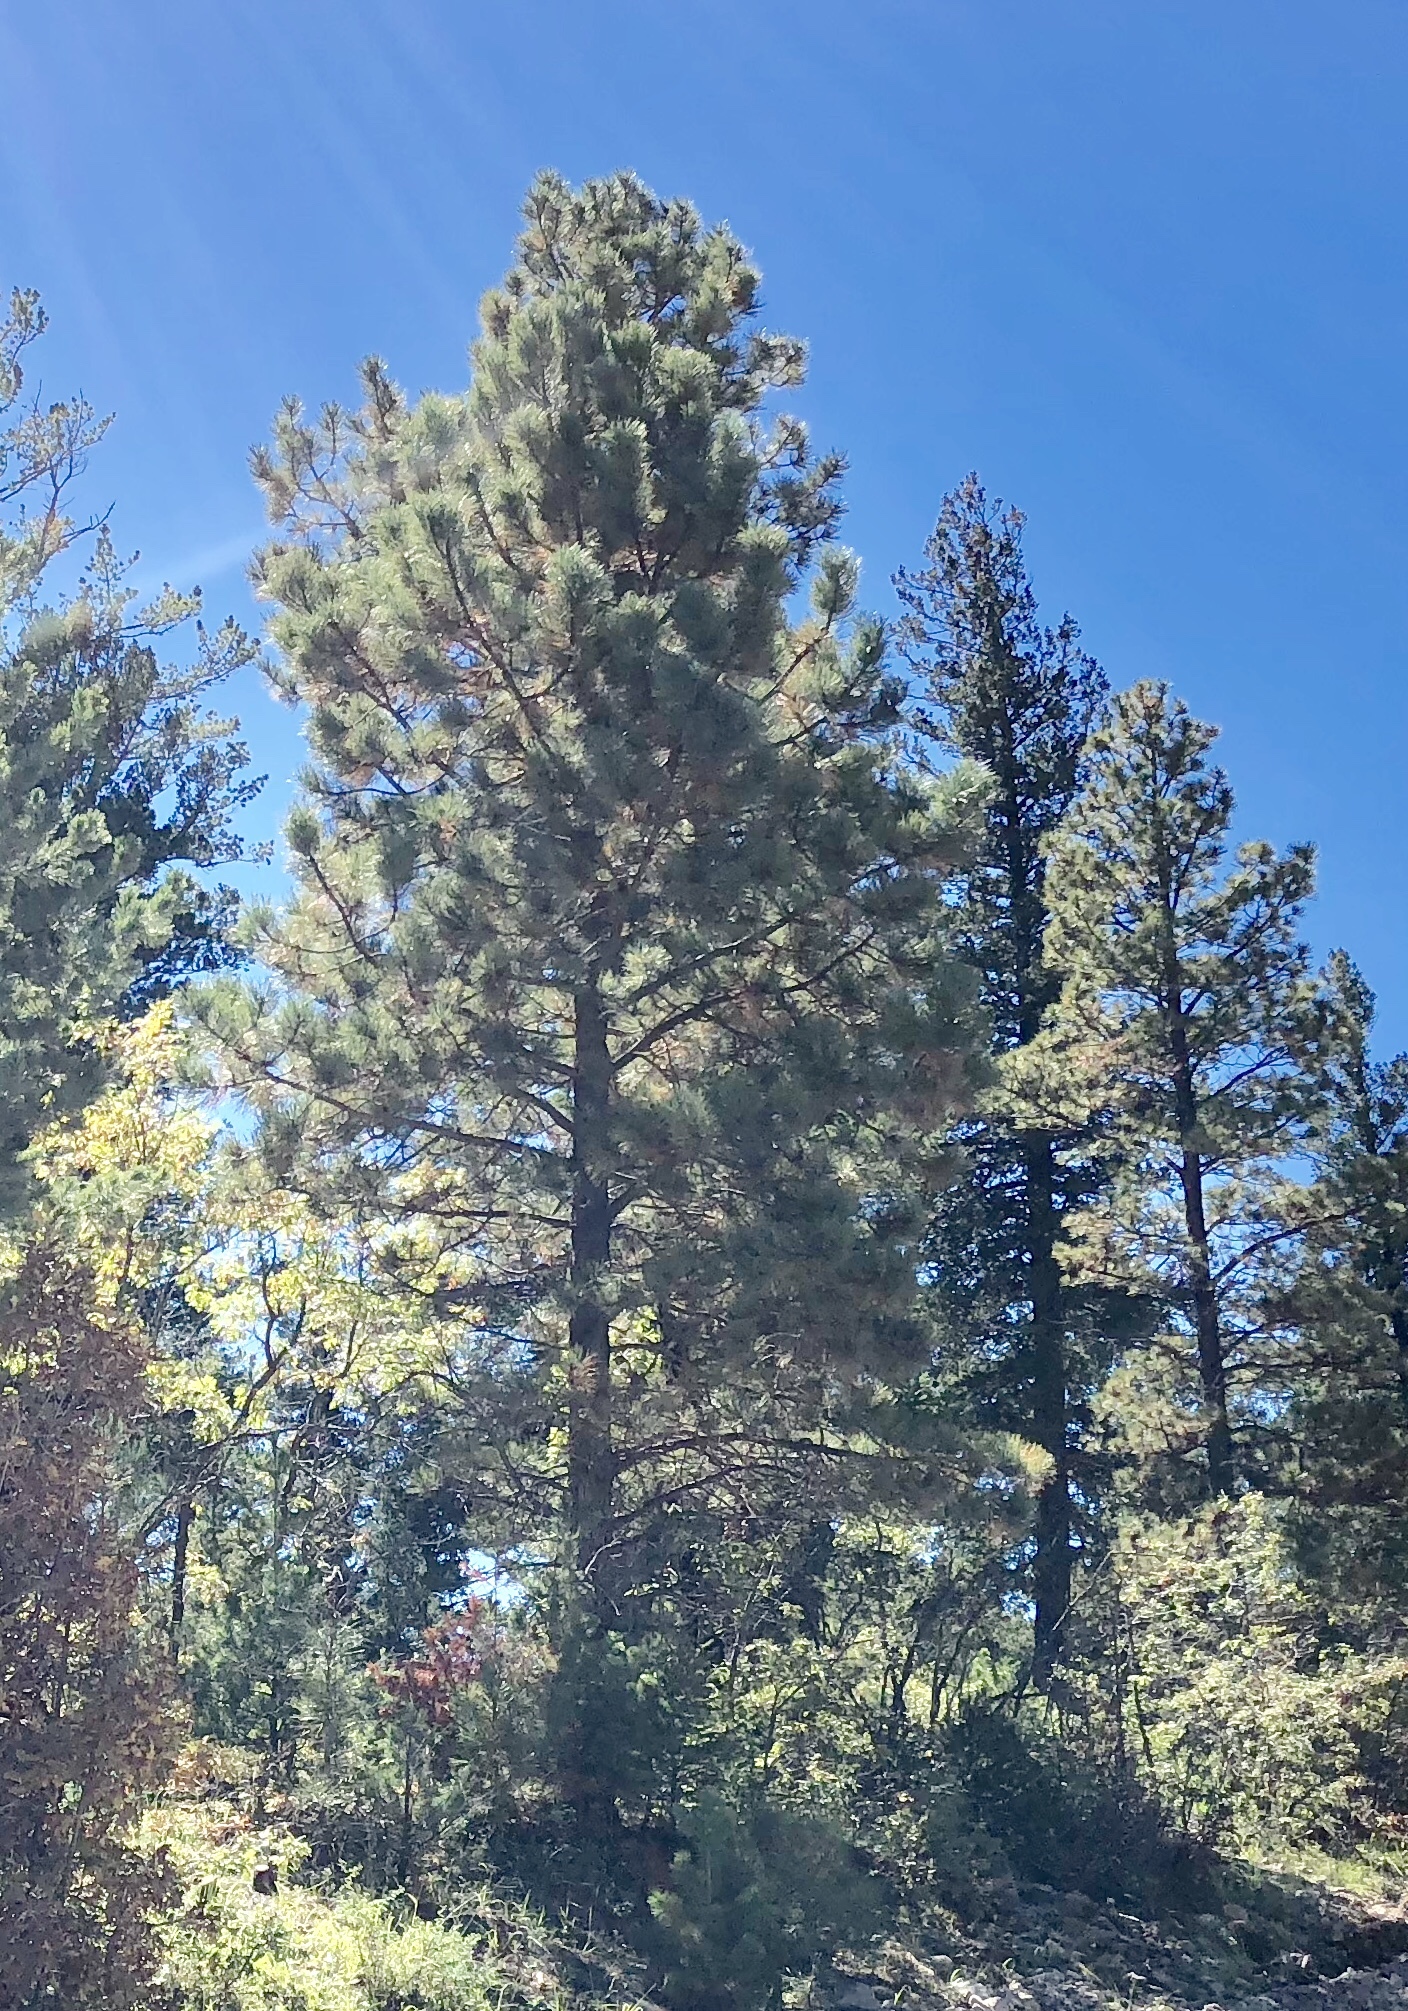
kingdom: Plantae
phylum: Tracheophyta
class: Pinopsida
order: Pinales
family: Pinaceae
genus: Pinus
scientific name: Pinus ponderosa
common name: Western yellow-pine
